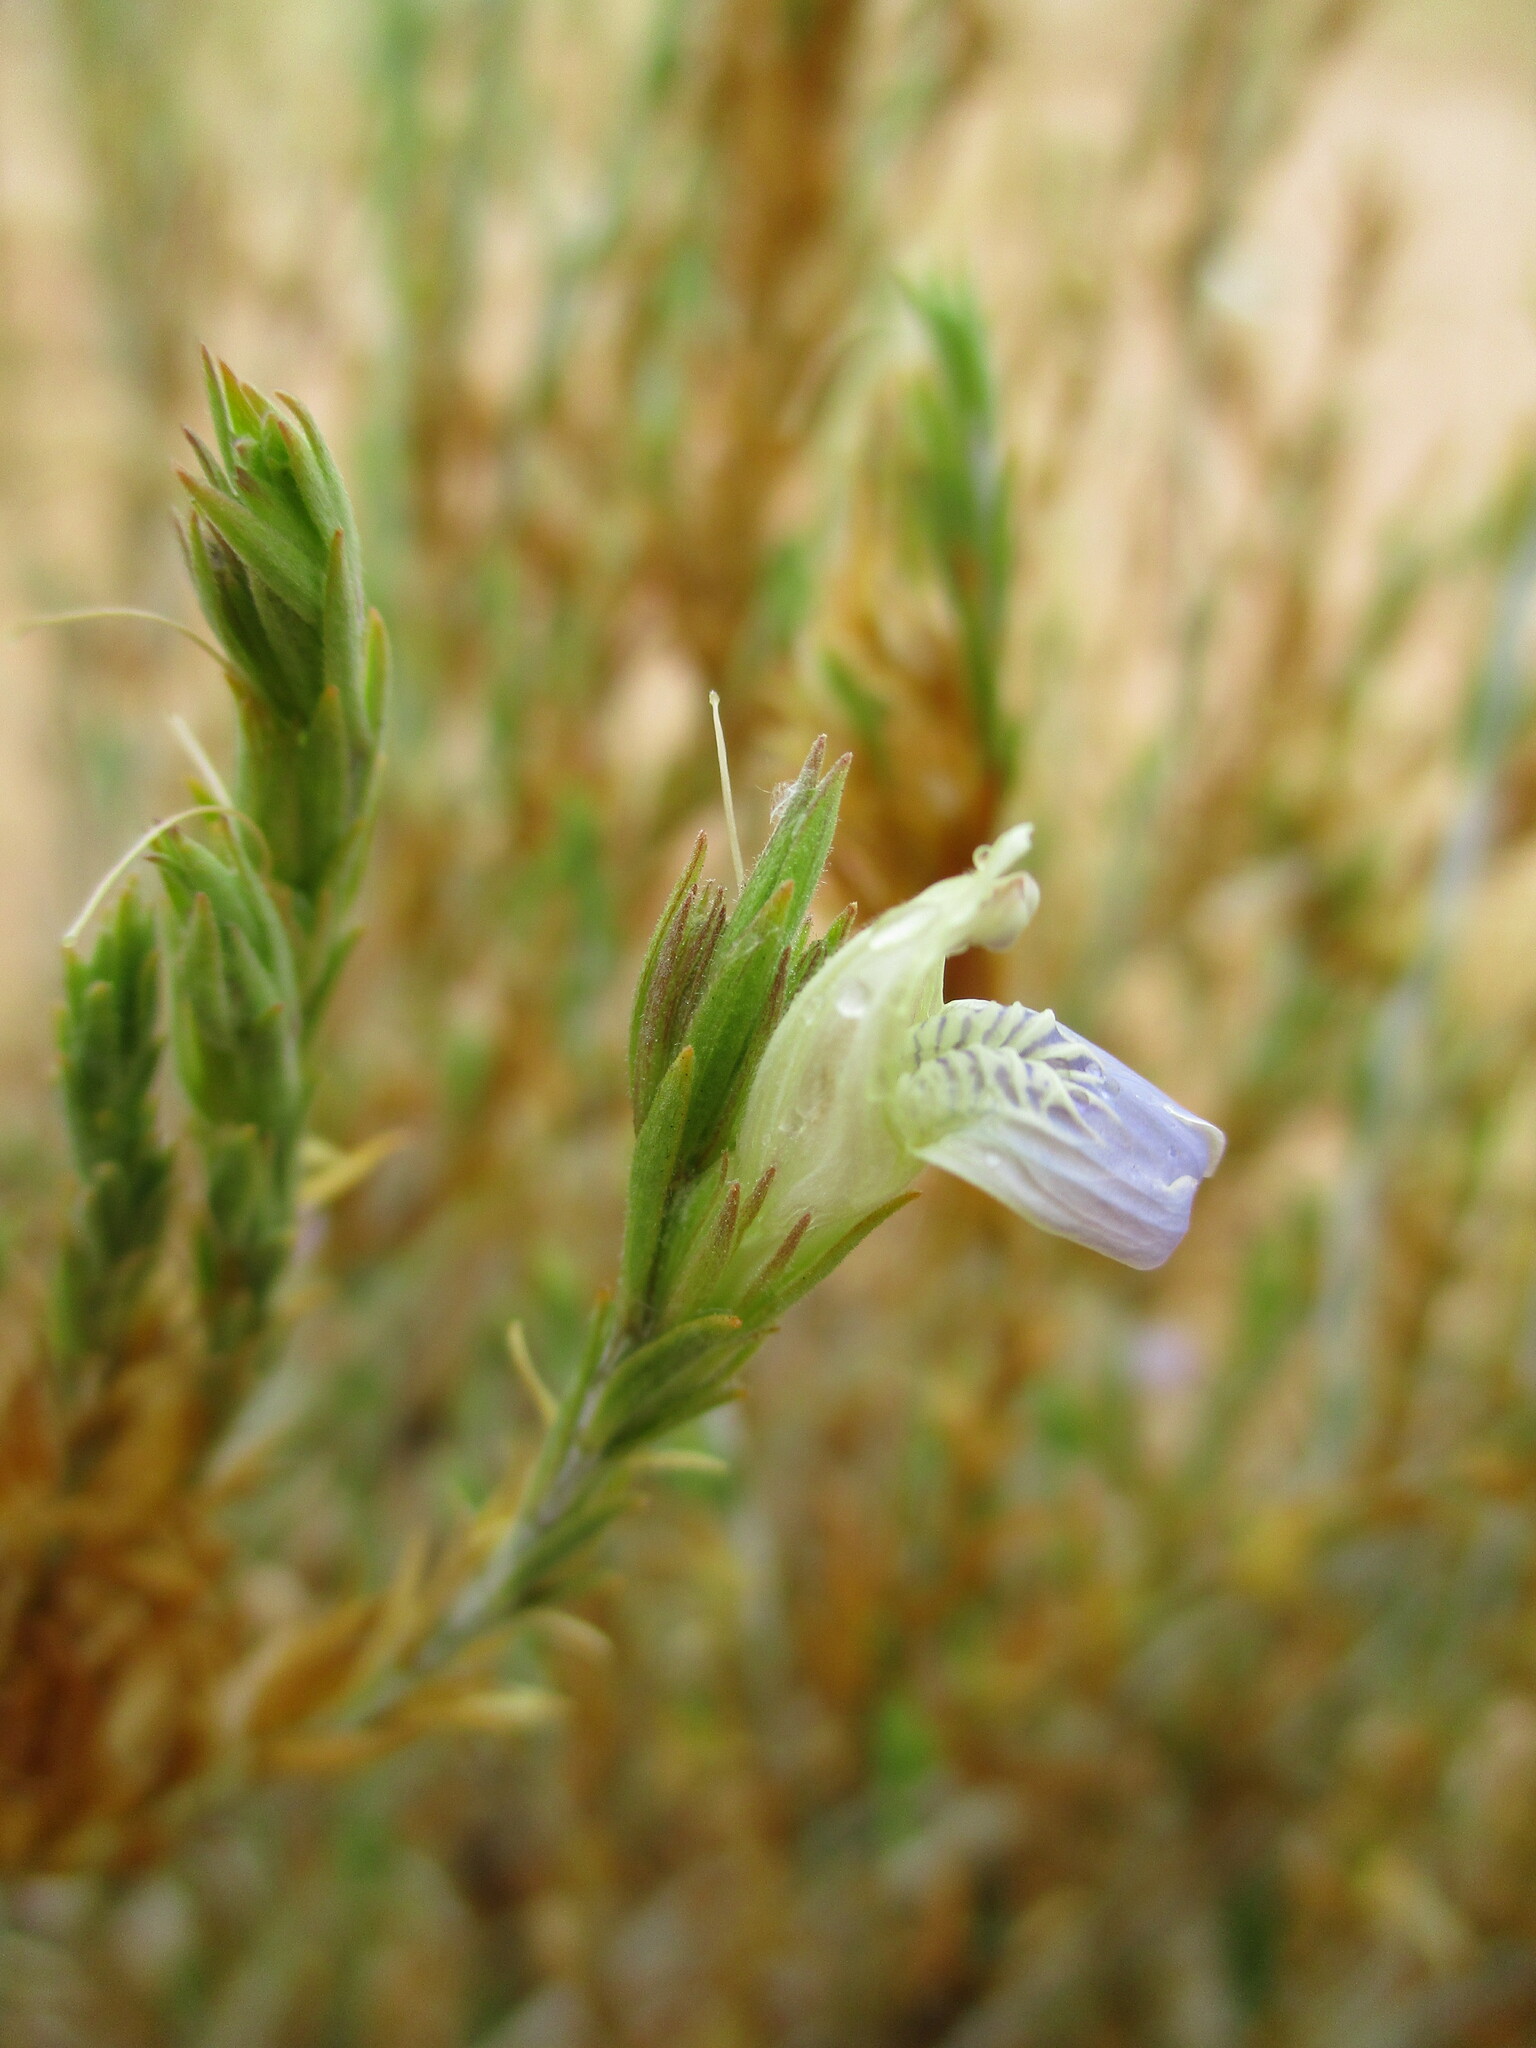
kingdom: Plantae
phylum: Tracheophyta
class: Magnoliopsida
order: Lamiales
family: Acanthaceae
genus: Pogonospermum
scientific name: Pogonospermum
